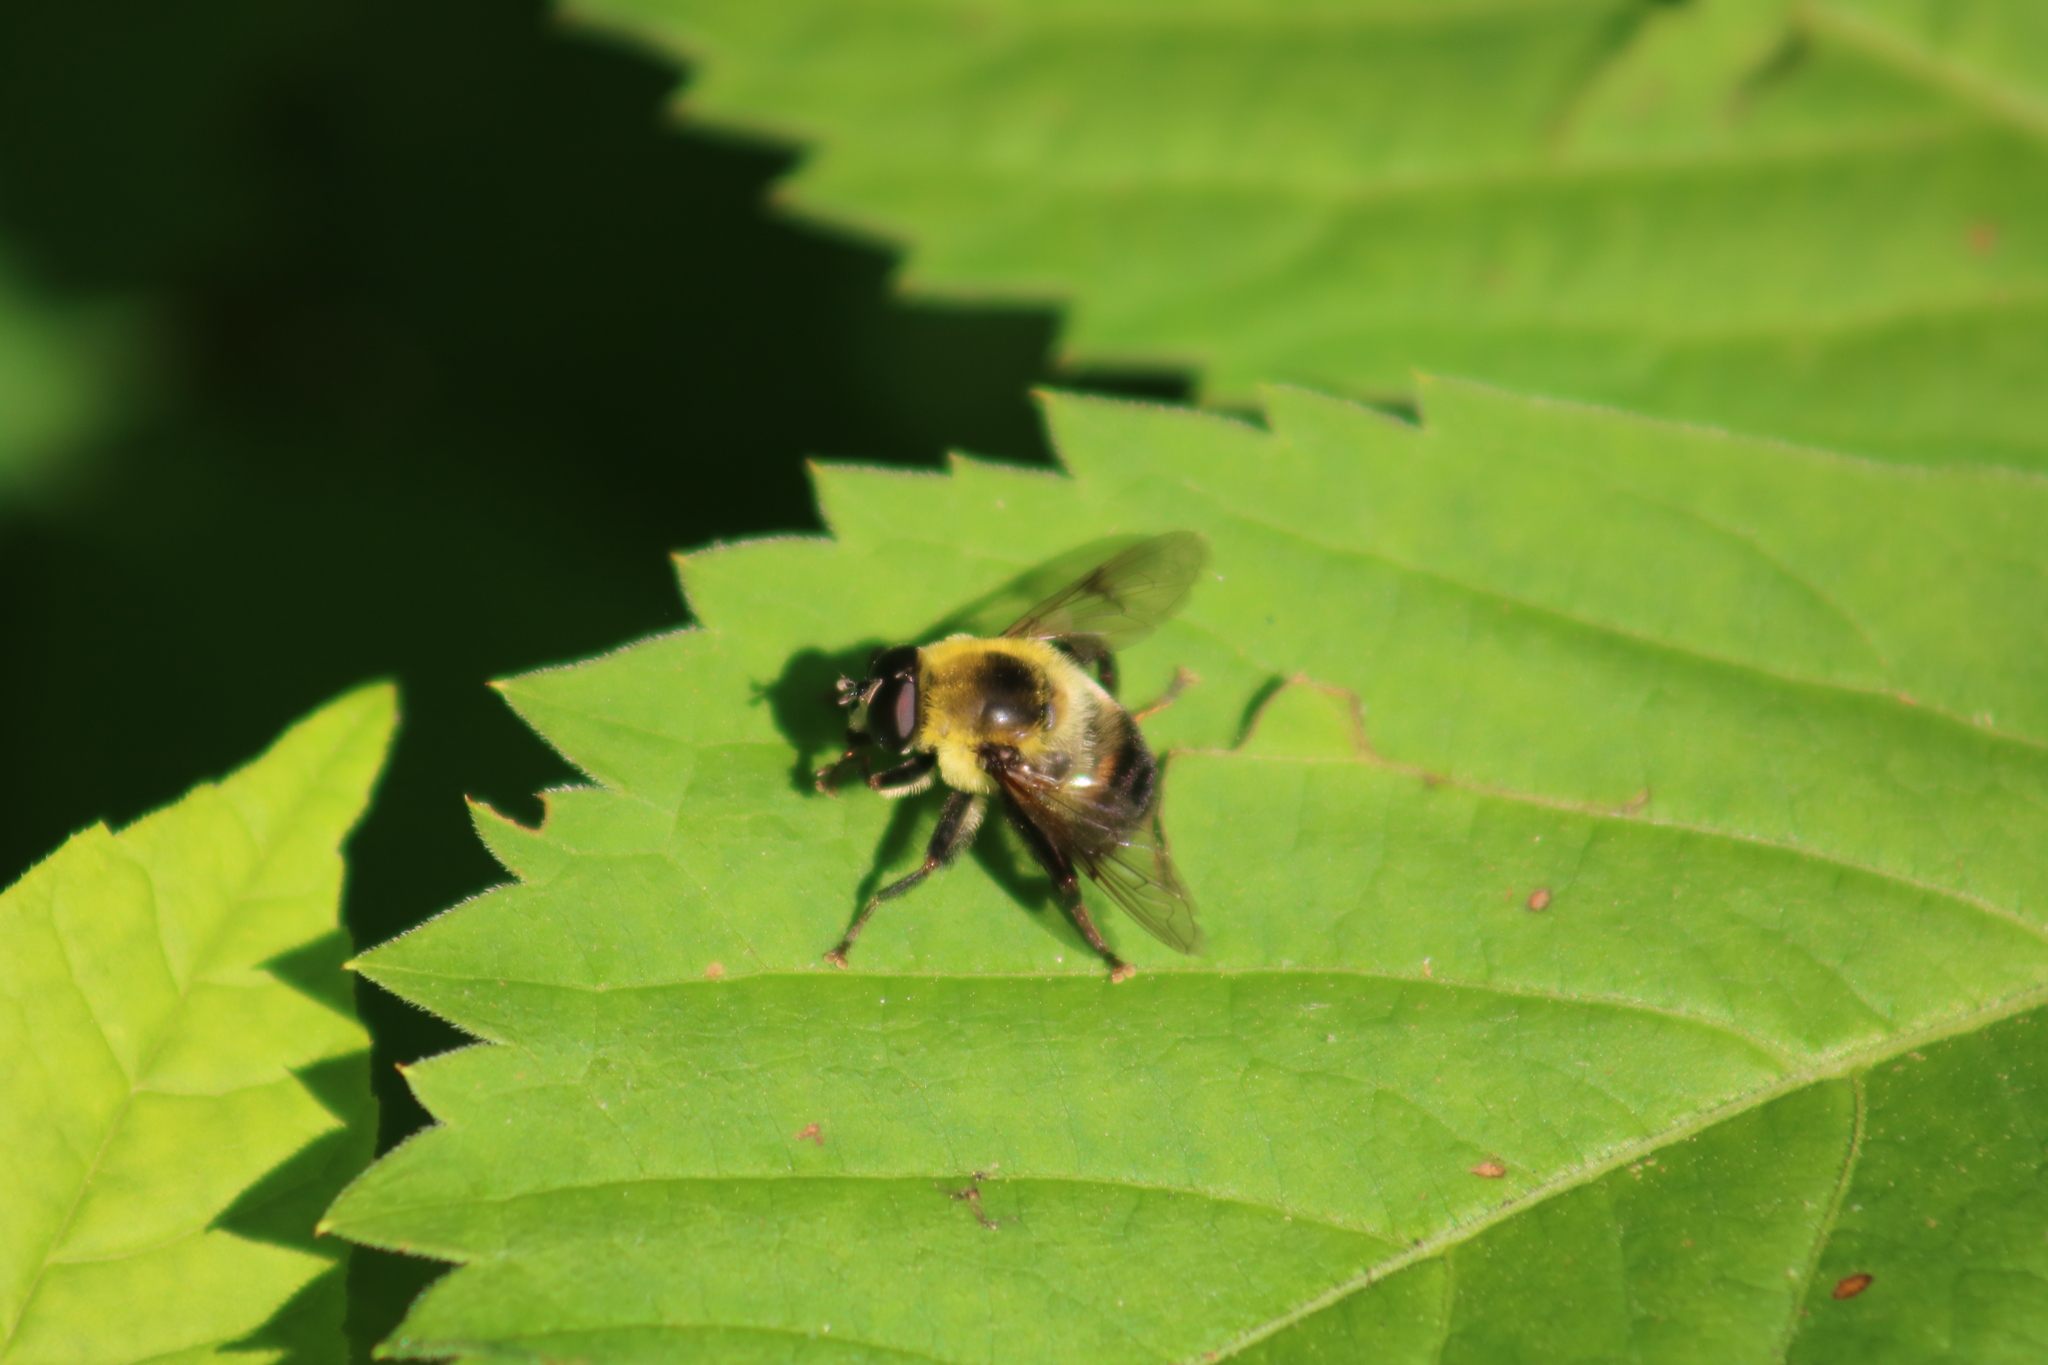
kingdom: Animalia
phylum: Arthropoda
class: Insecta
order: Diptera
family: Syrphidae
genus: Imatisma
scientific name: Imatisma posticata
